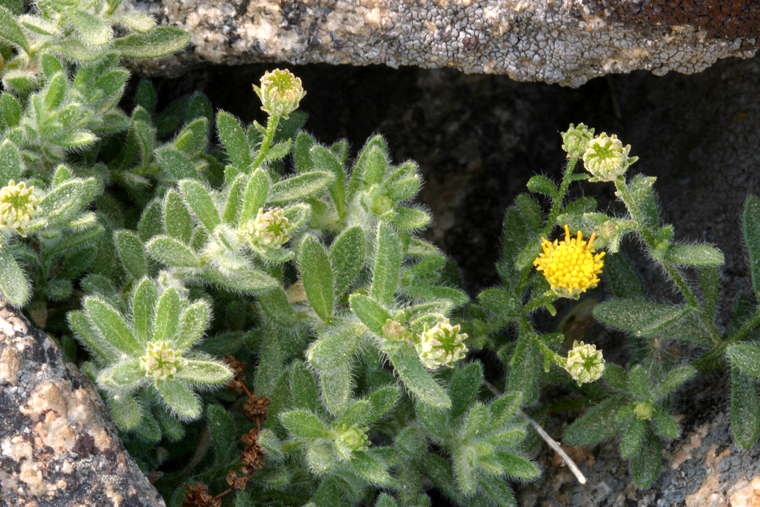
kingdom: Plantae
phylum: Tracheophyta
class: Magnoliopsida
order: Asterales
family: Asteraceae
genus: Erigeron
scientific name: Erigeron miser
